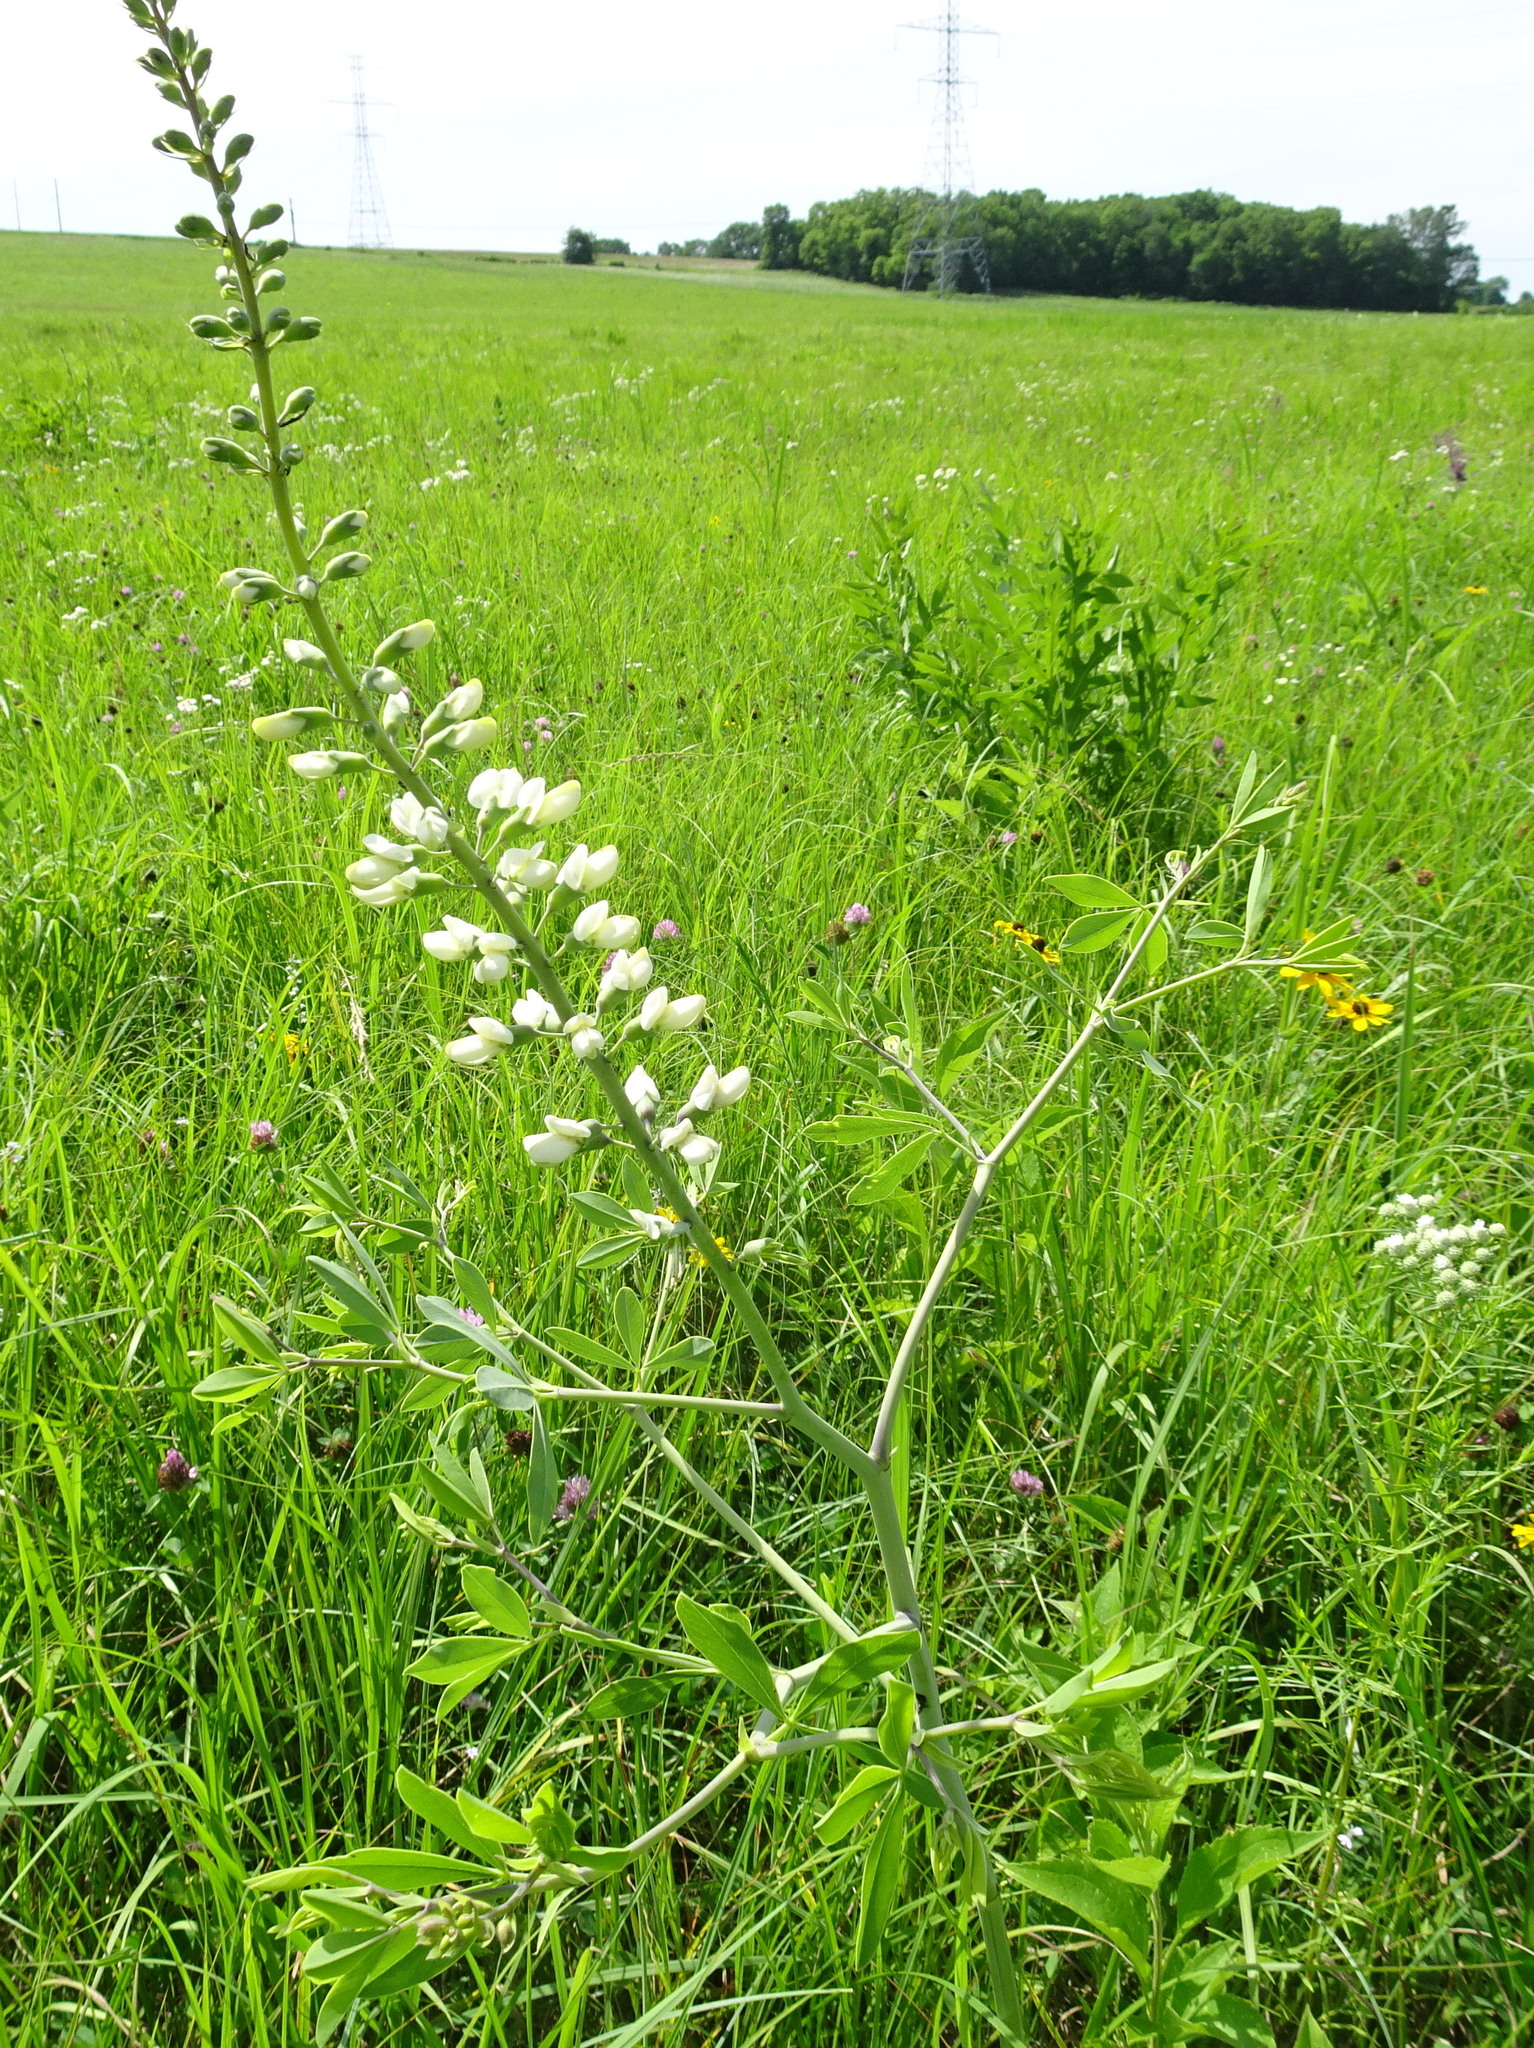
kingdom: Plantae
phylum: Tracheophyta
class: Magnoliopsida
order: Fabales
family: Fabaceae
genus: Baptisia
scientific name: Baptisia alba
